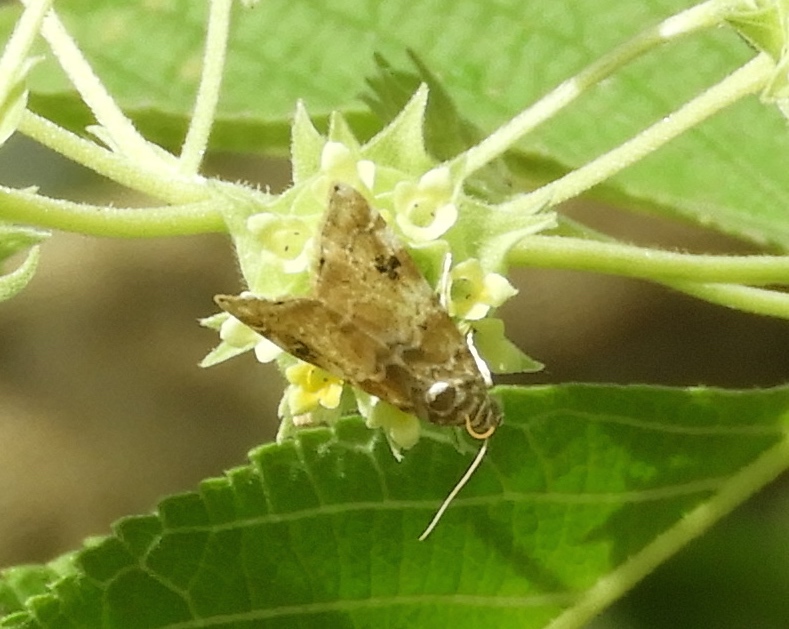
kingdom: Animalia
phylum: Arthropoda
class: Insecta
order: Lepidoptera
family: Crambidae
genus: Hellula
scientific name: Hellula rogatalis
